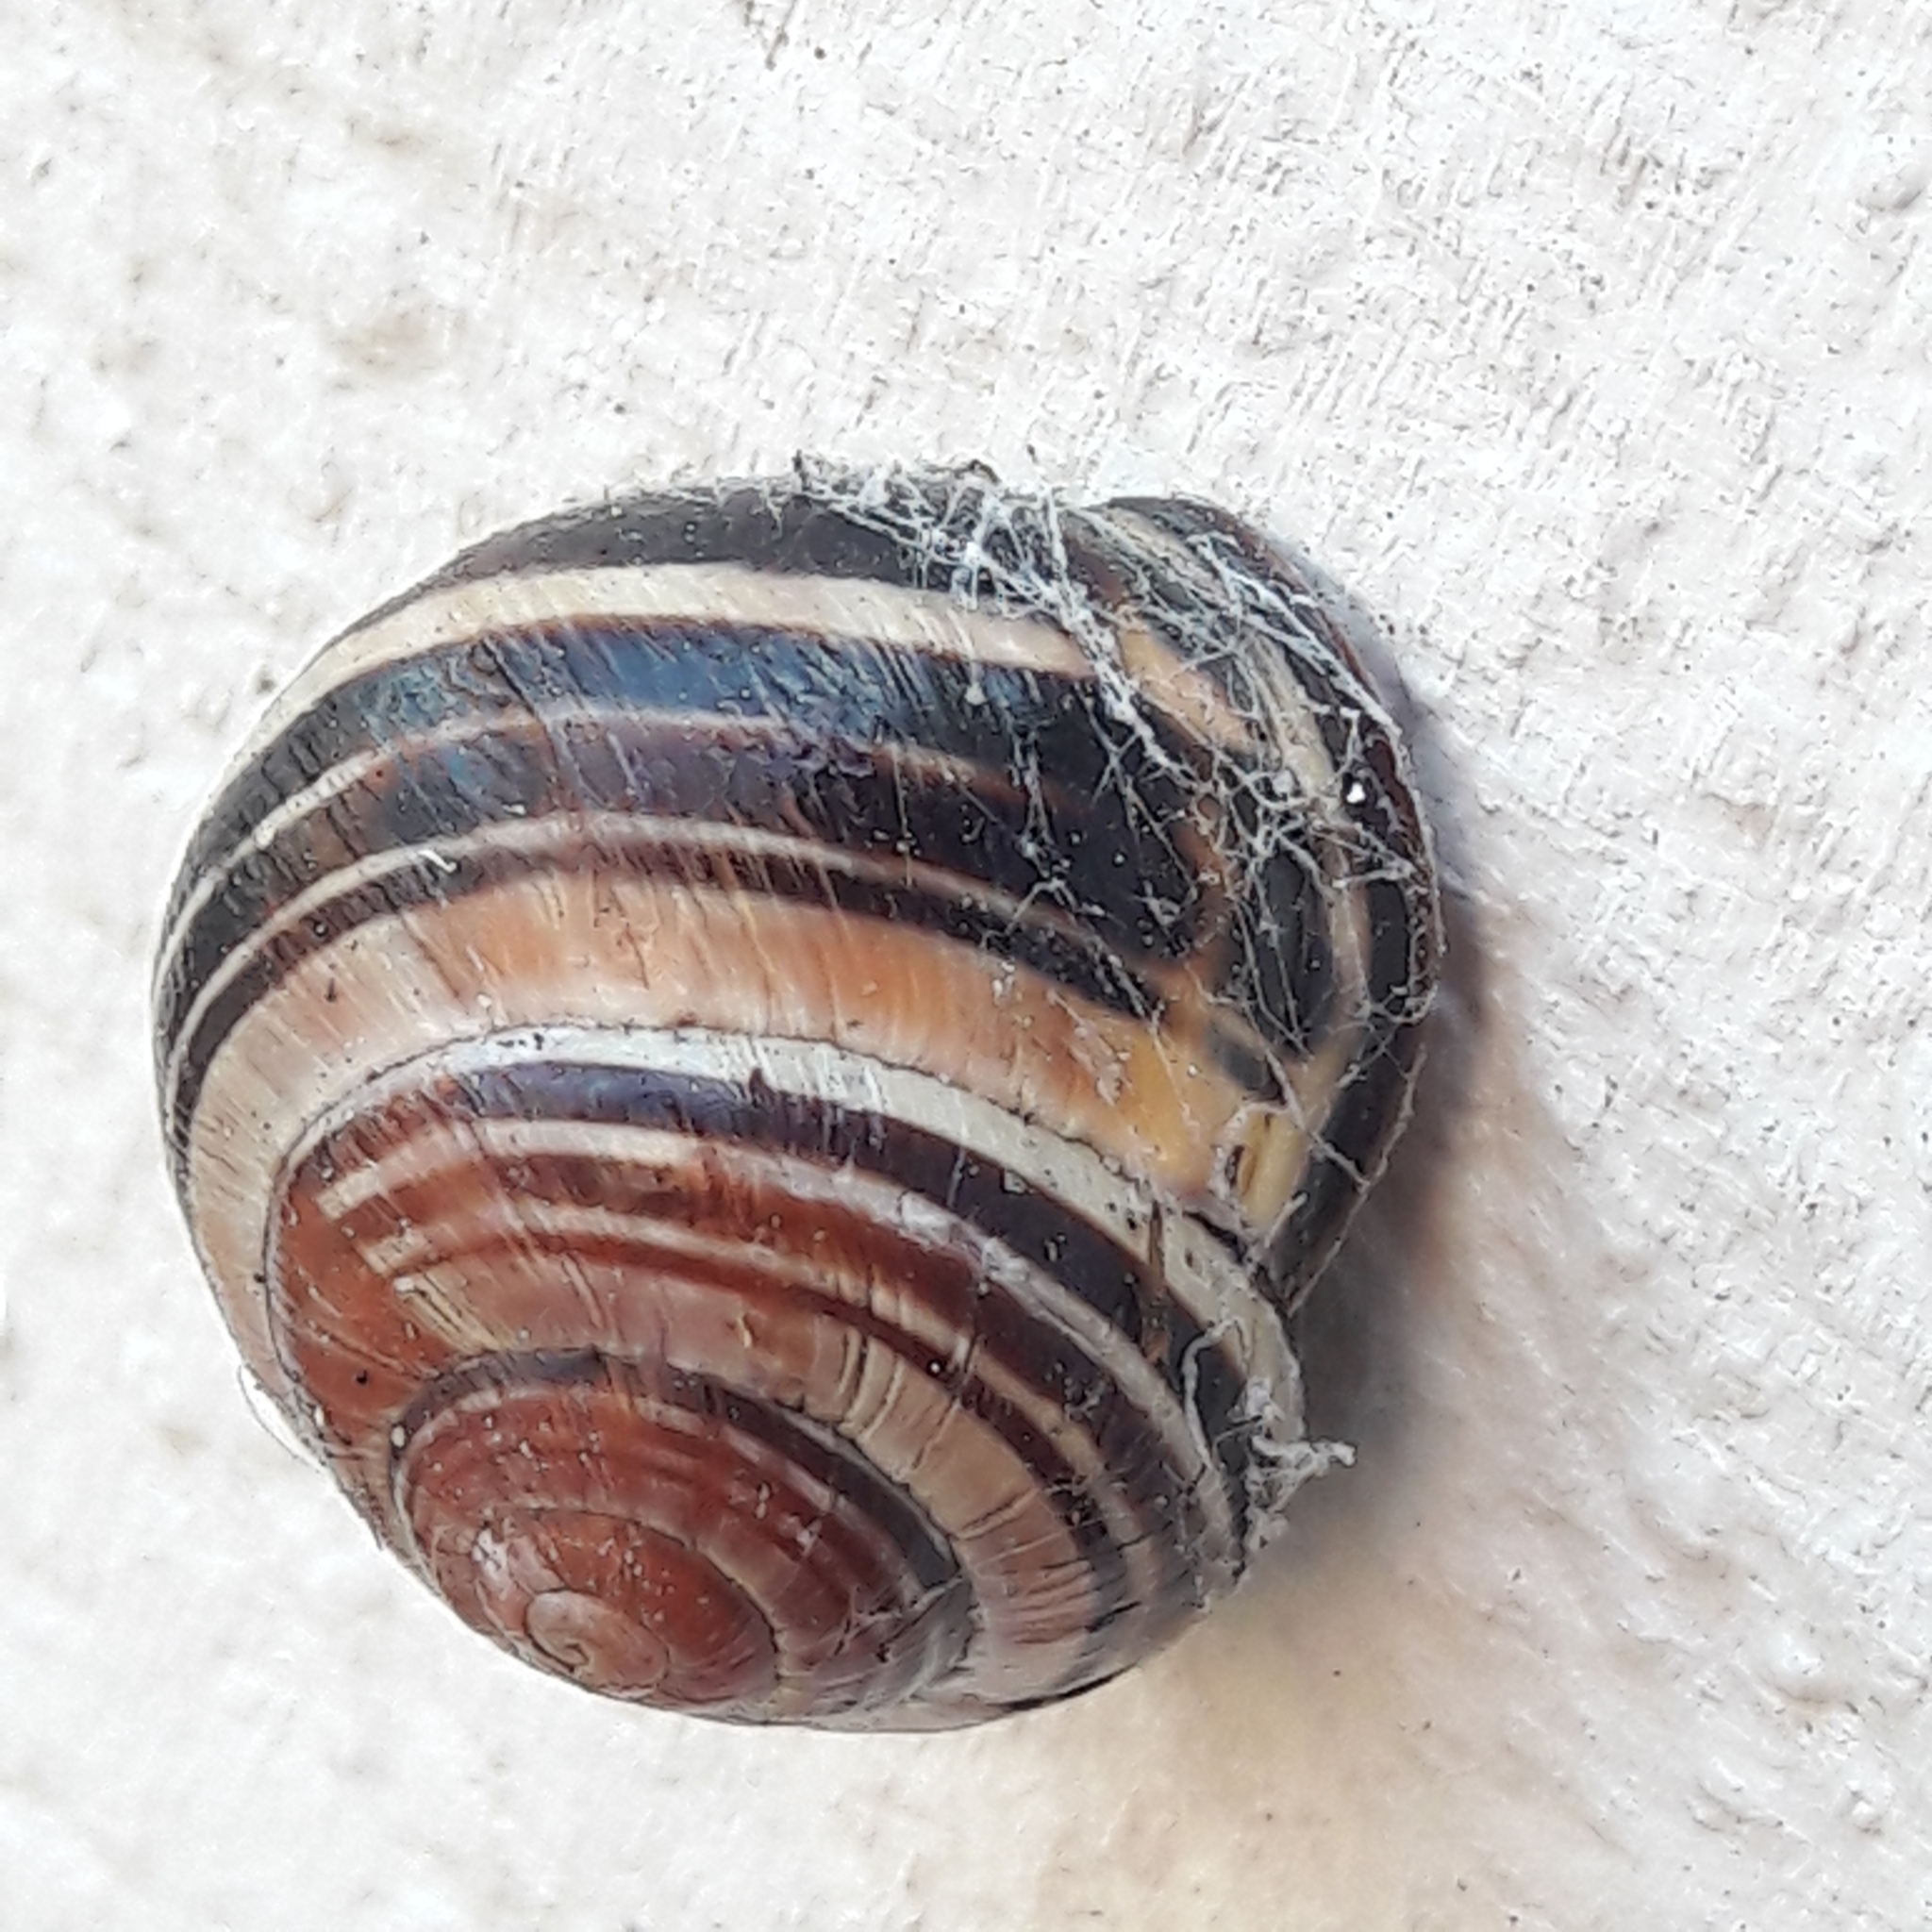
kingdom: Animalia
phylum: Mollusca
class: Gastropoda
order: Stylommatophora
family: Helicidae
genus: Cepaea
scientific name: Cepaea nemoralis
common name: Grovesnail
